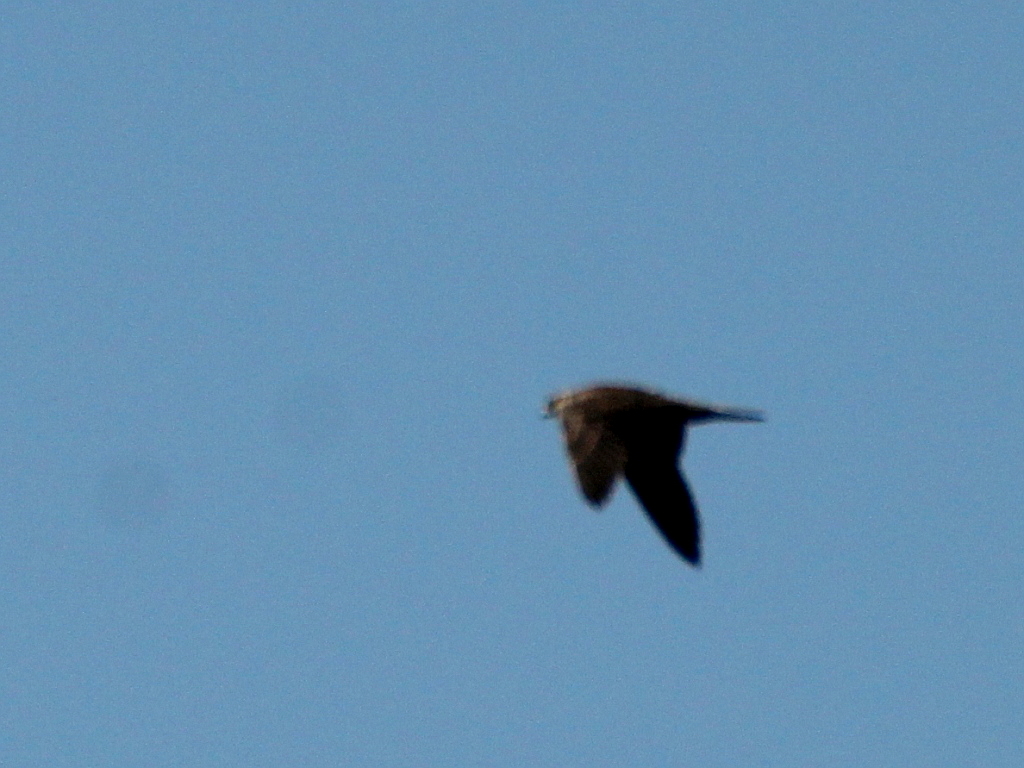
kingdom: Animalia
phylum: Chordata
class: Aves
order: Falconiformes
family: Falconidae
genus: Falco
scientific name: Falco peregrinus
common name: Peregrine falcon
